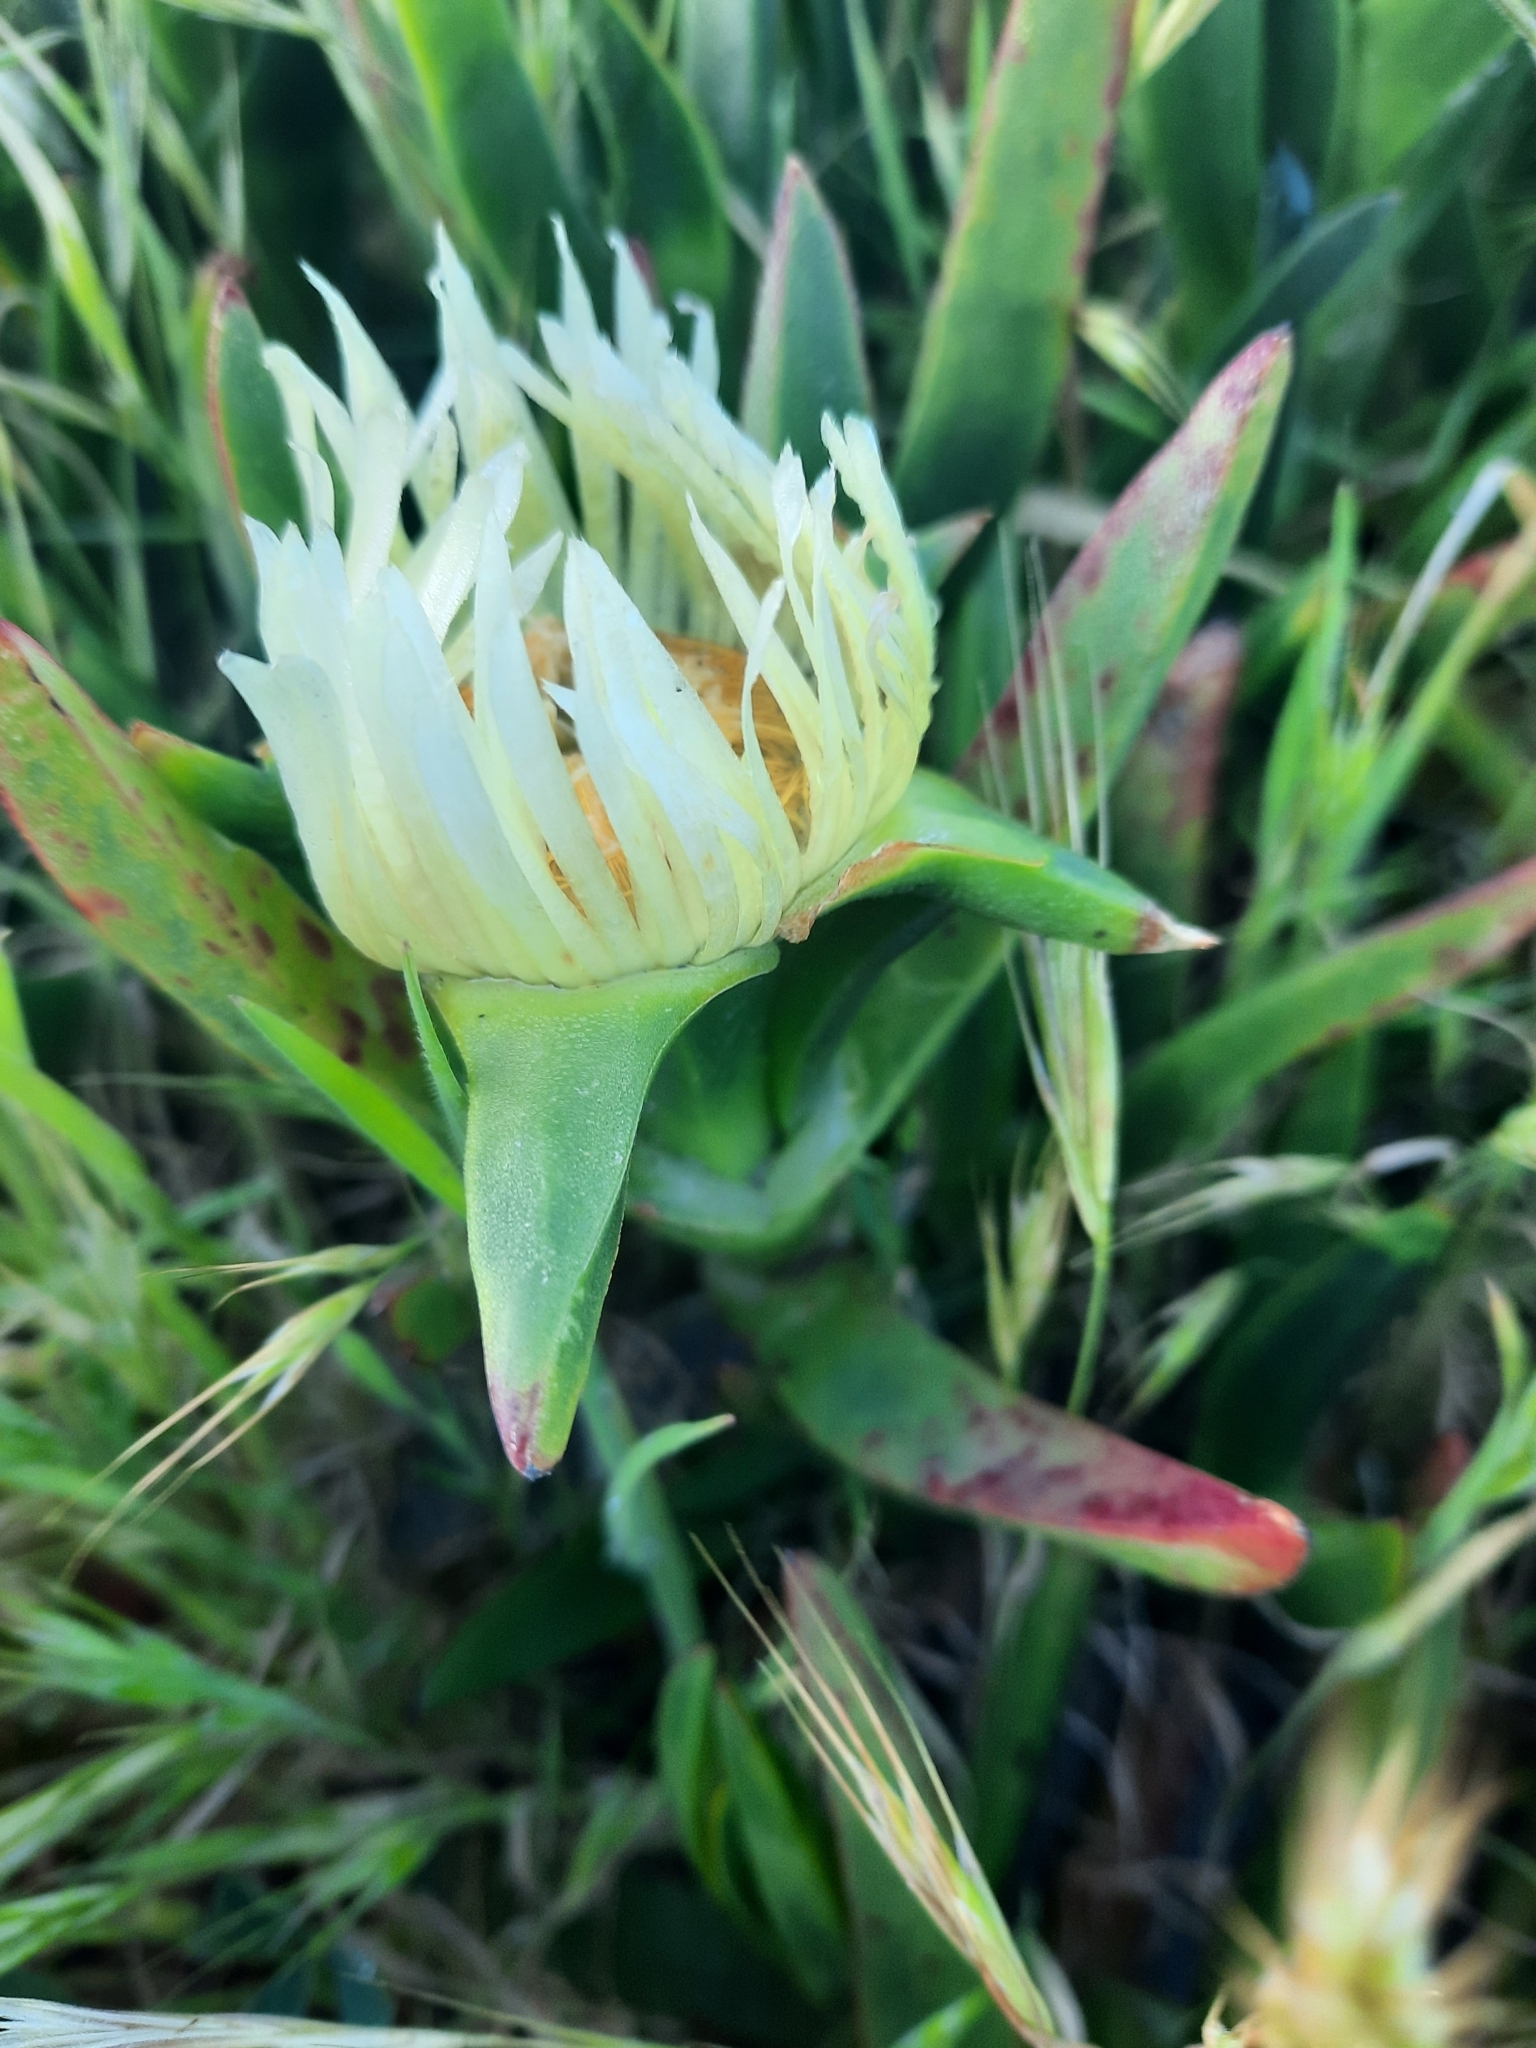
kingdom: Plantae
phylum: Tracheophyta
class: Magnoliopsida
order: Caryophyllales
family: Aizoaceae
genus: Carpobrotus
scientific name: Carpobrotus edulis
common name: Hottentot-fig
